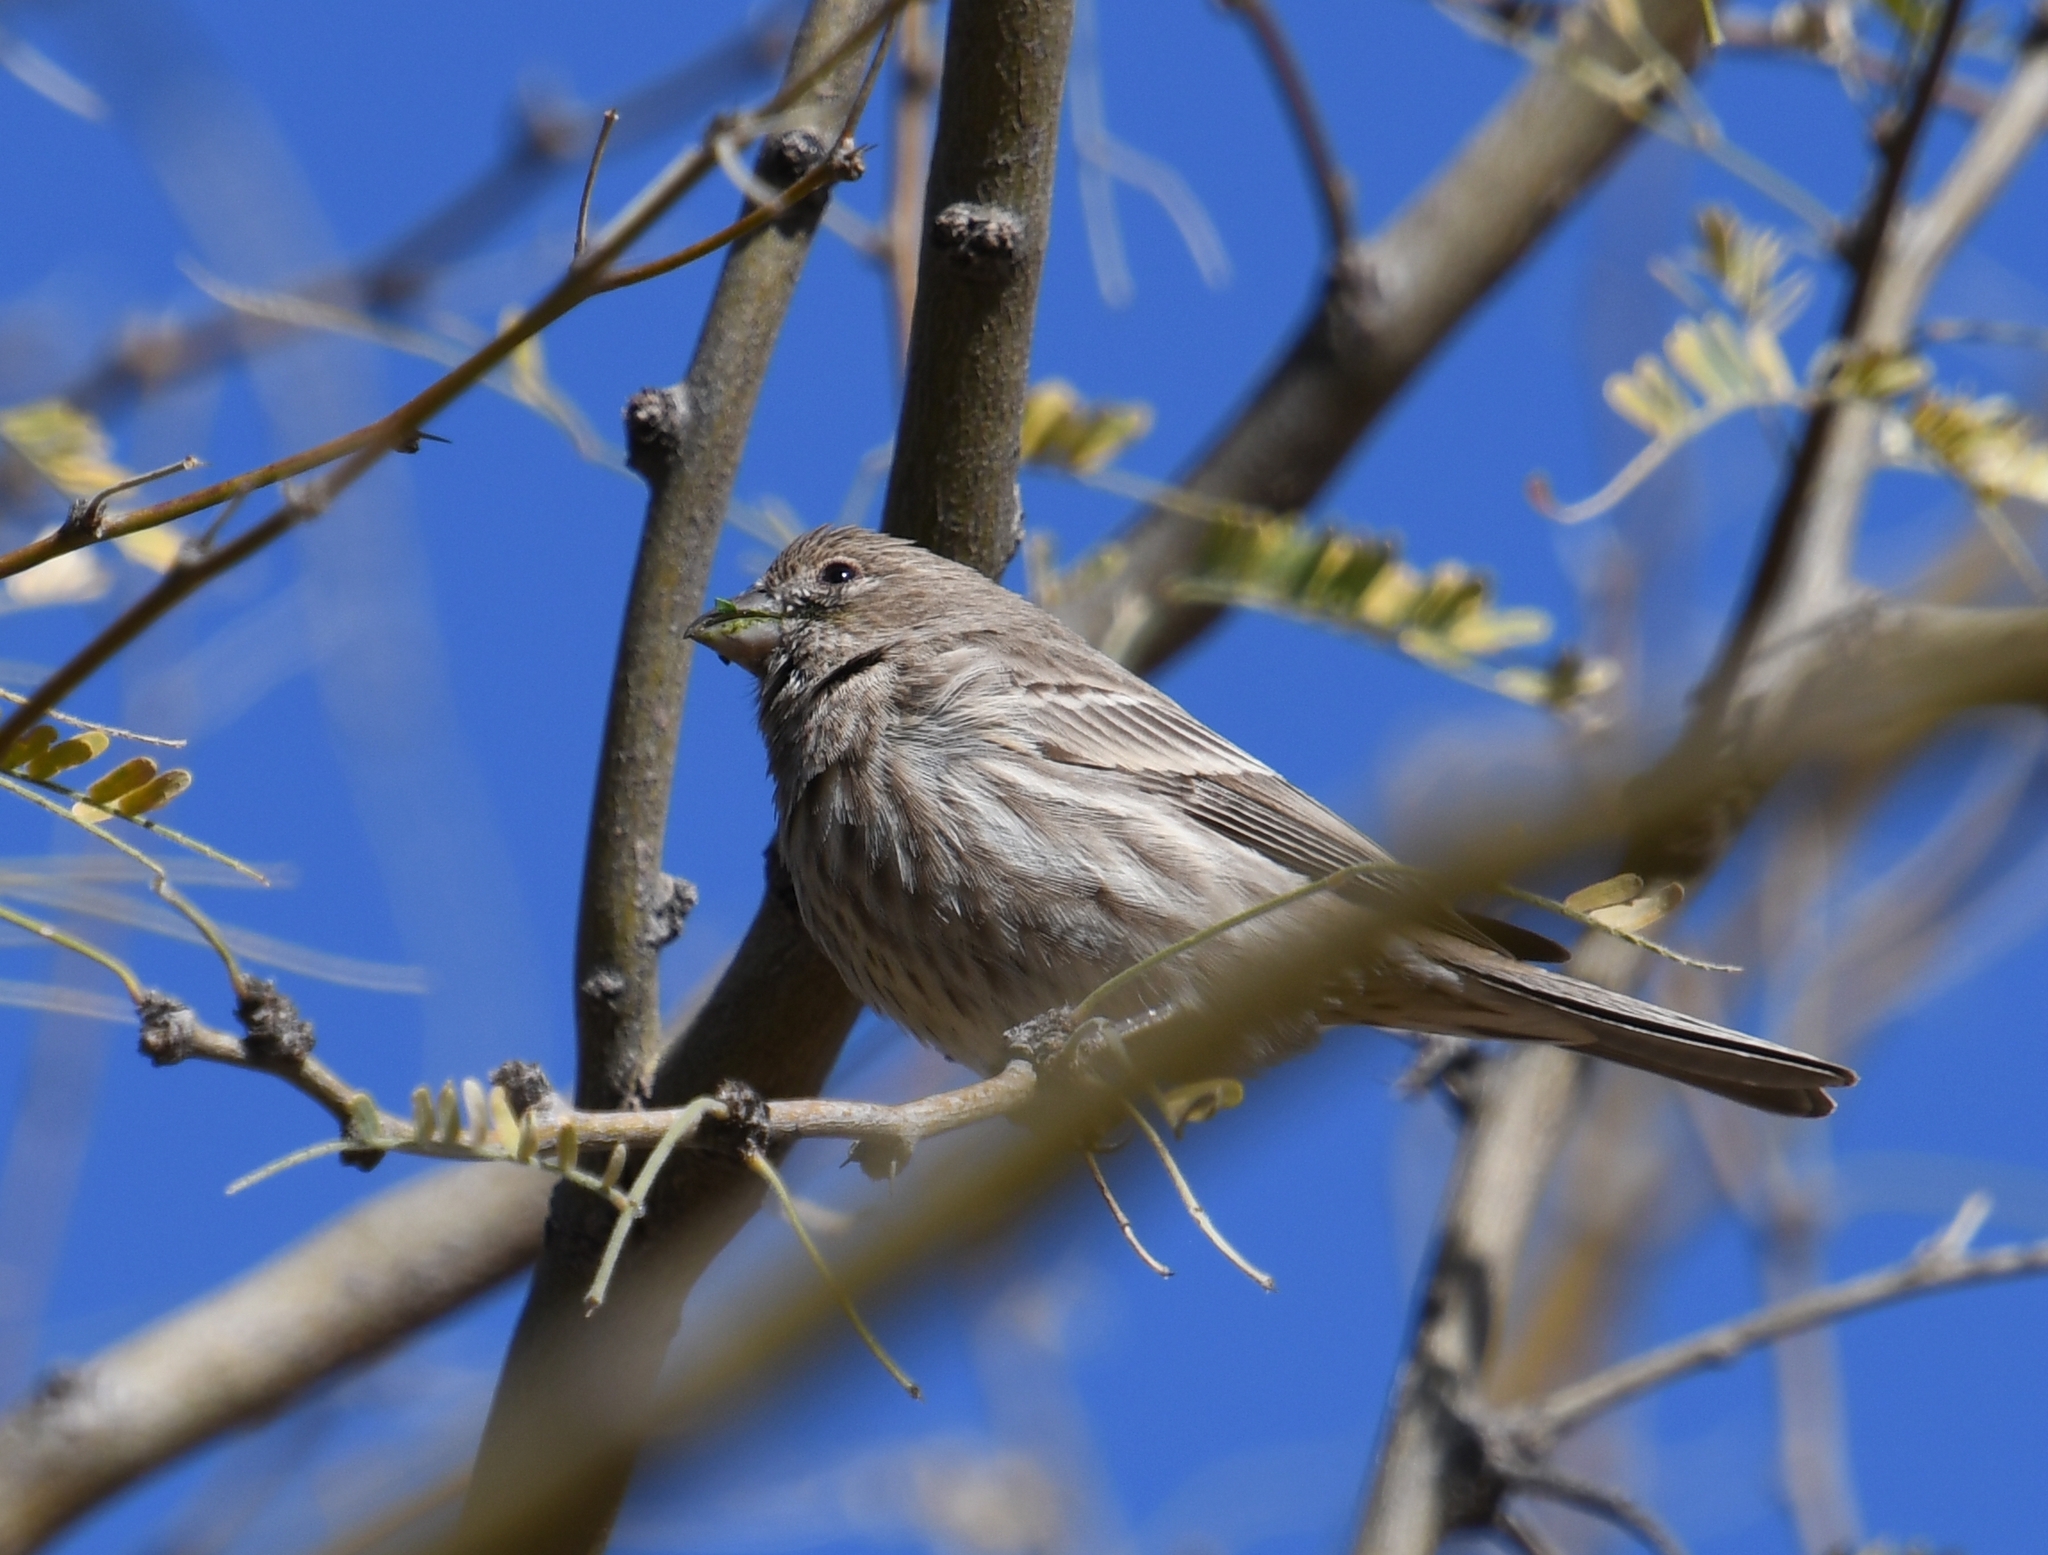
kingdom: Animalia
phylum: Chordata
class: Aves
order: Passeriformes
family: Fringillidae
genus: Haemorhous
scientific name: Haemorhous mexicanus
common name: House finch
